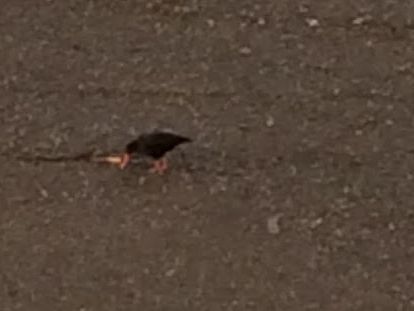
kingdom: Animalia
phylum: Chordata
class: Aves
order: Charadriiformes
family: Haematopodidae
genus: Haematopus
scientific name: Haematopus unicolor
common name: Variable oystercatcher
